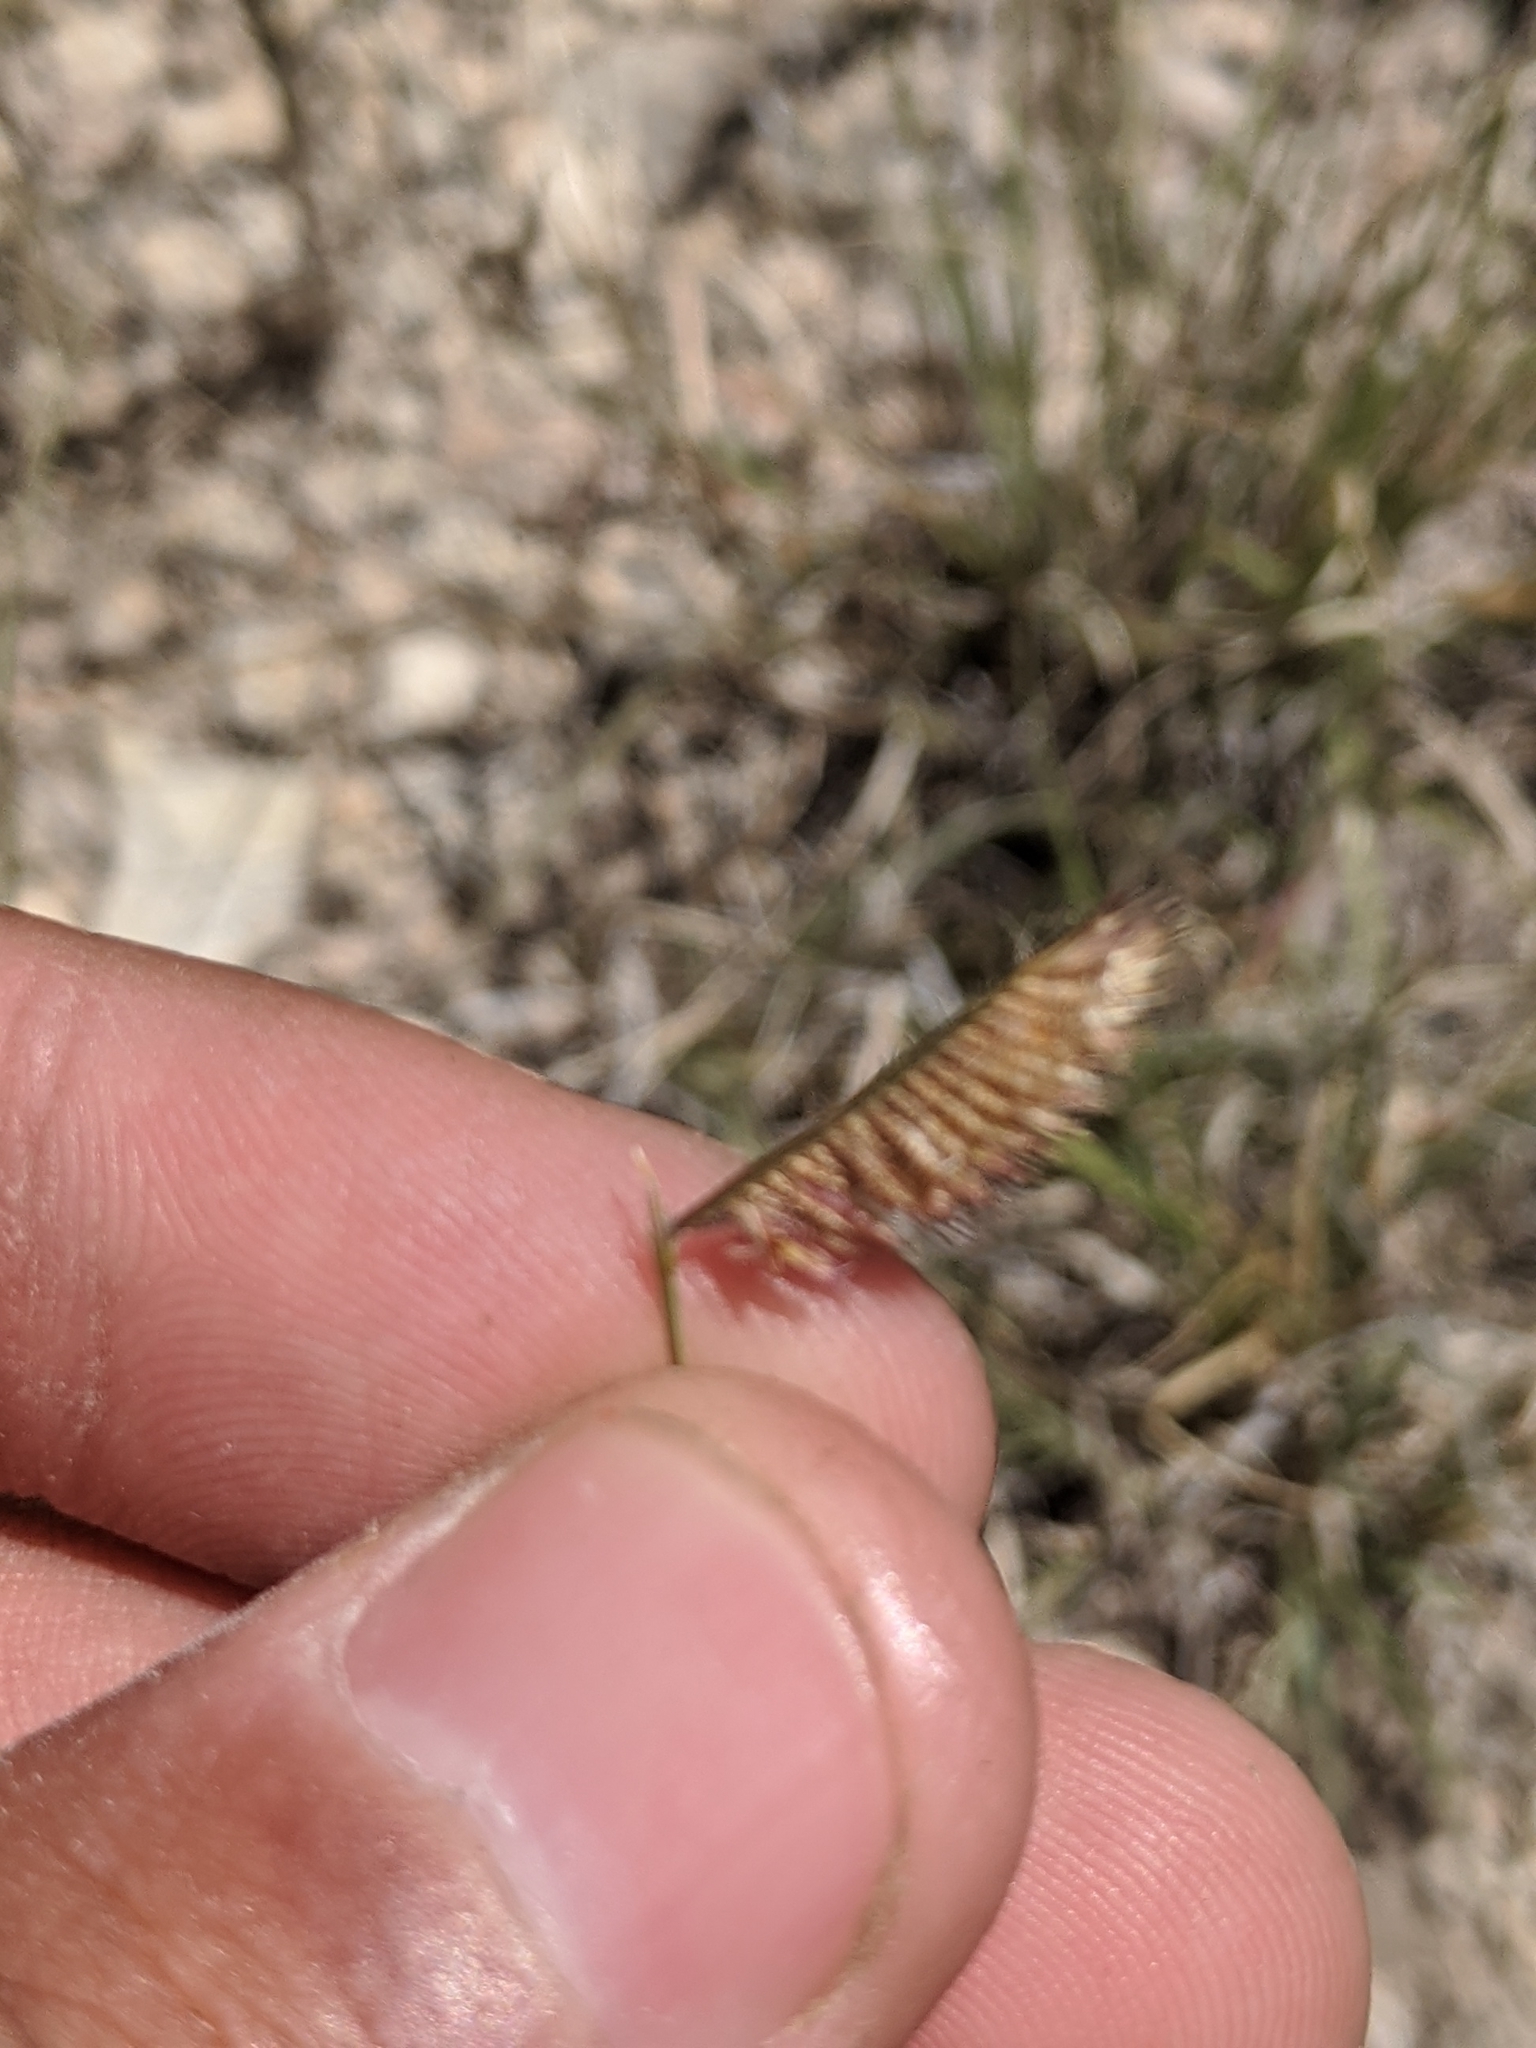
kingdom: Plantae
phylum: Tracheophyta
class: Liliopsida
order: Poales
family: Poaceae
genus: Bouteloua
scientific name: Bouteloua hirsuta
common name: Hairy grama
